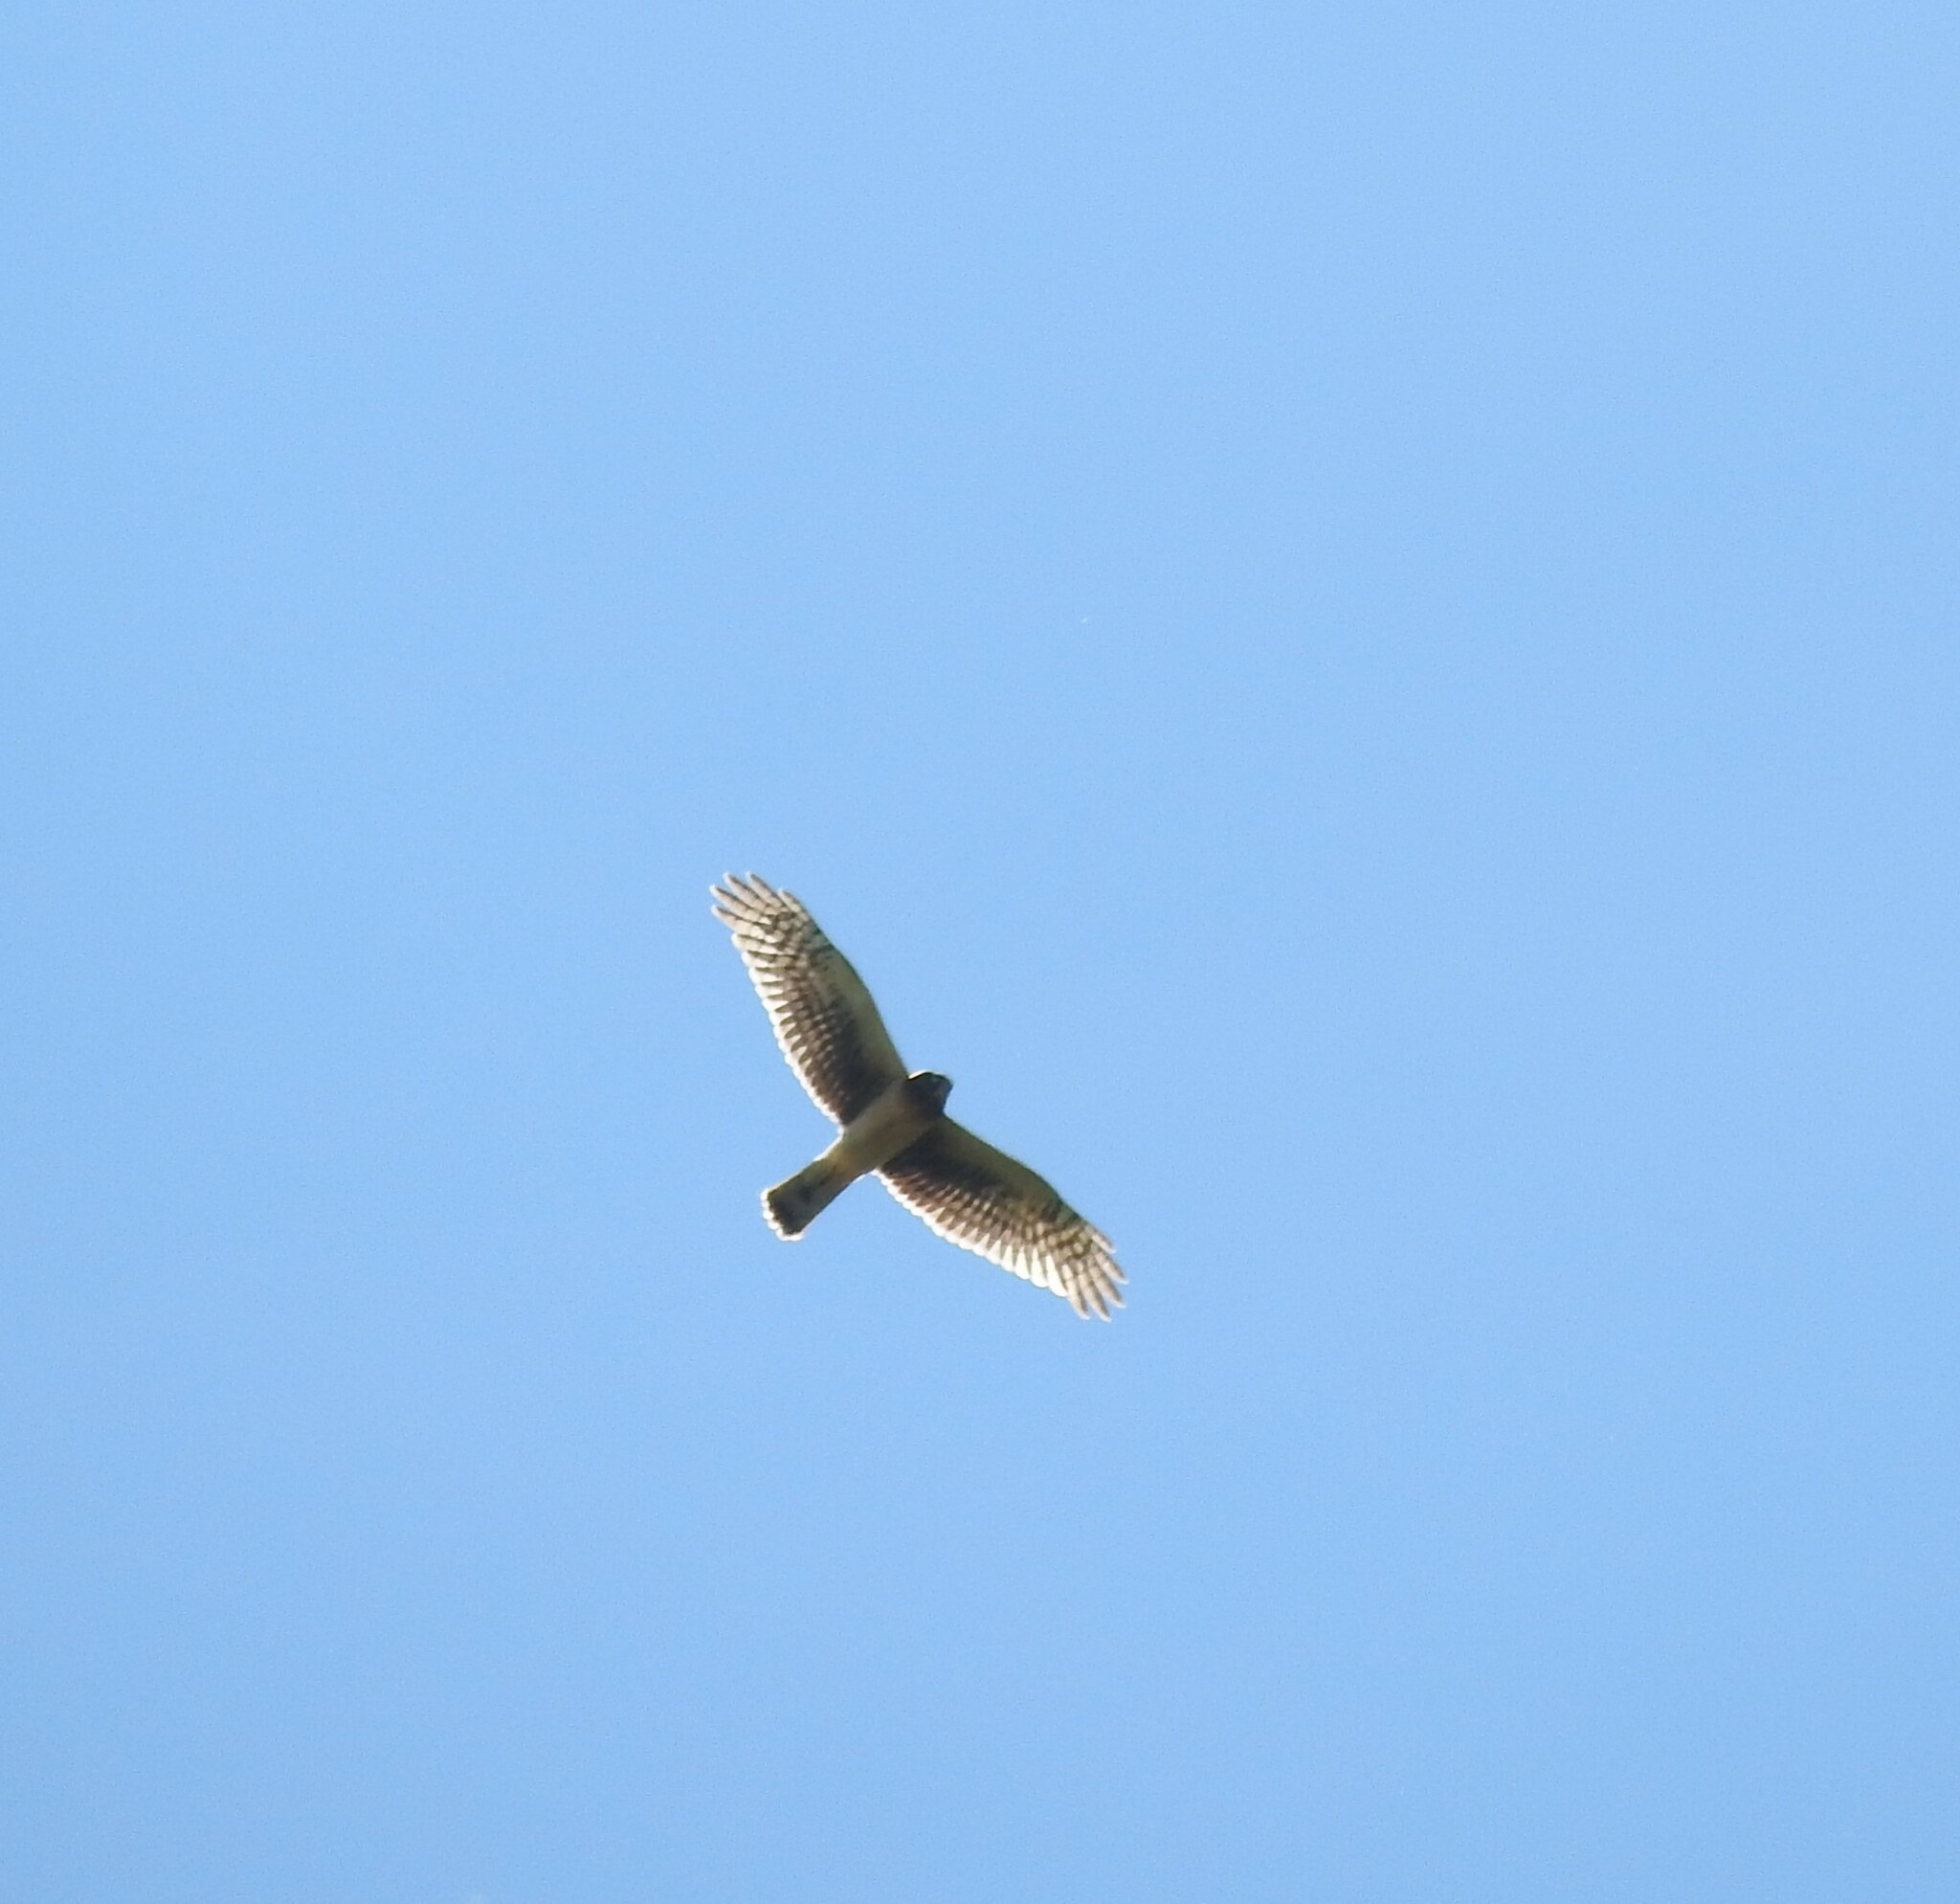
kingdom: Animalia
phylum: Chordata
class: Aves
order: Accipitriformes
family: Accipitridae
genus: Circus
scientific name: Circus cyaneus
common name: Hen harrier
